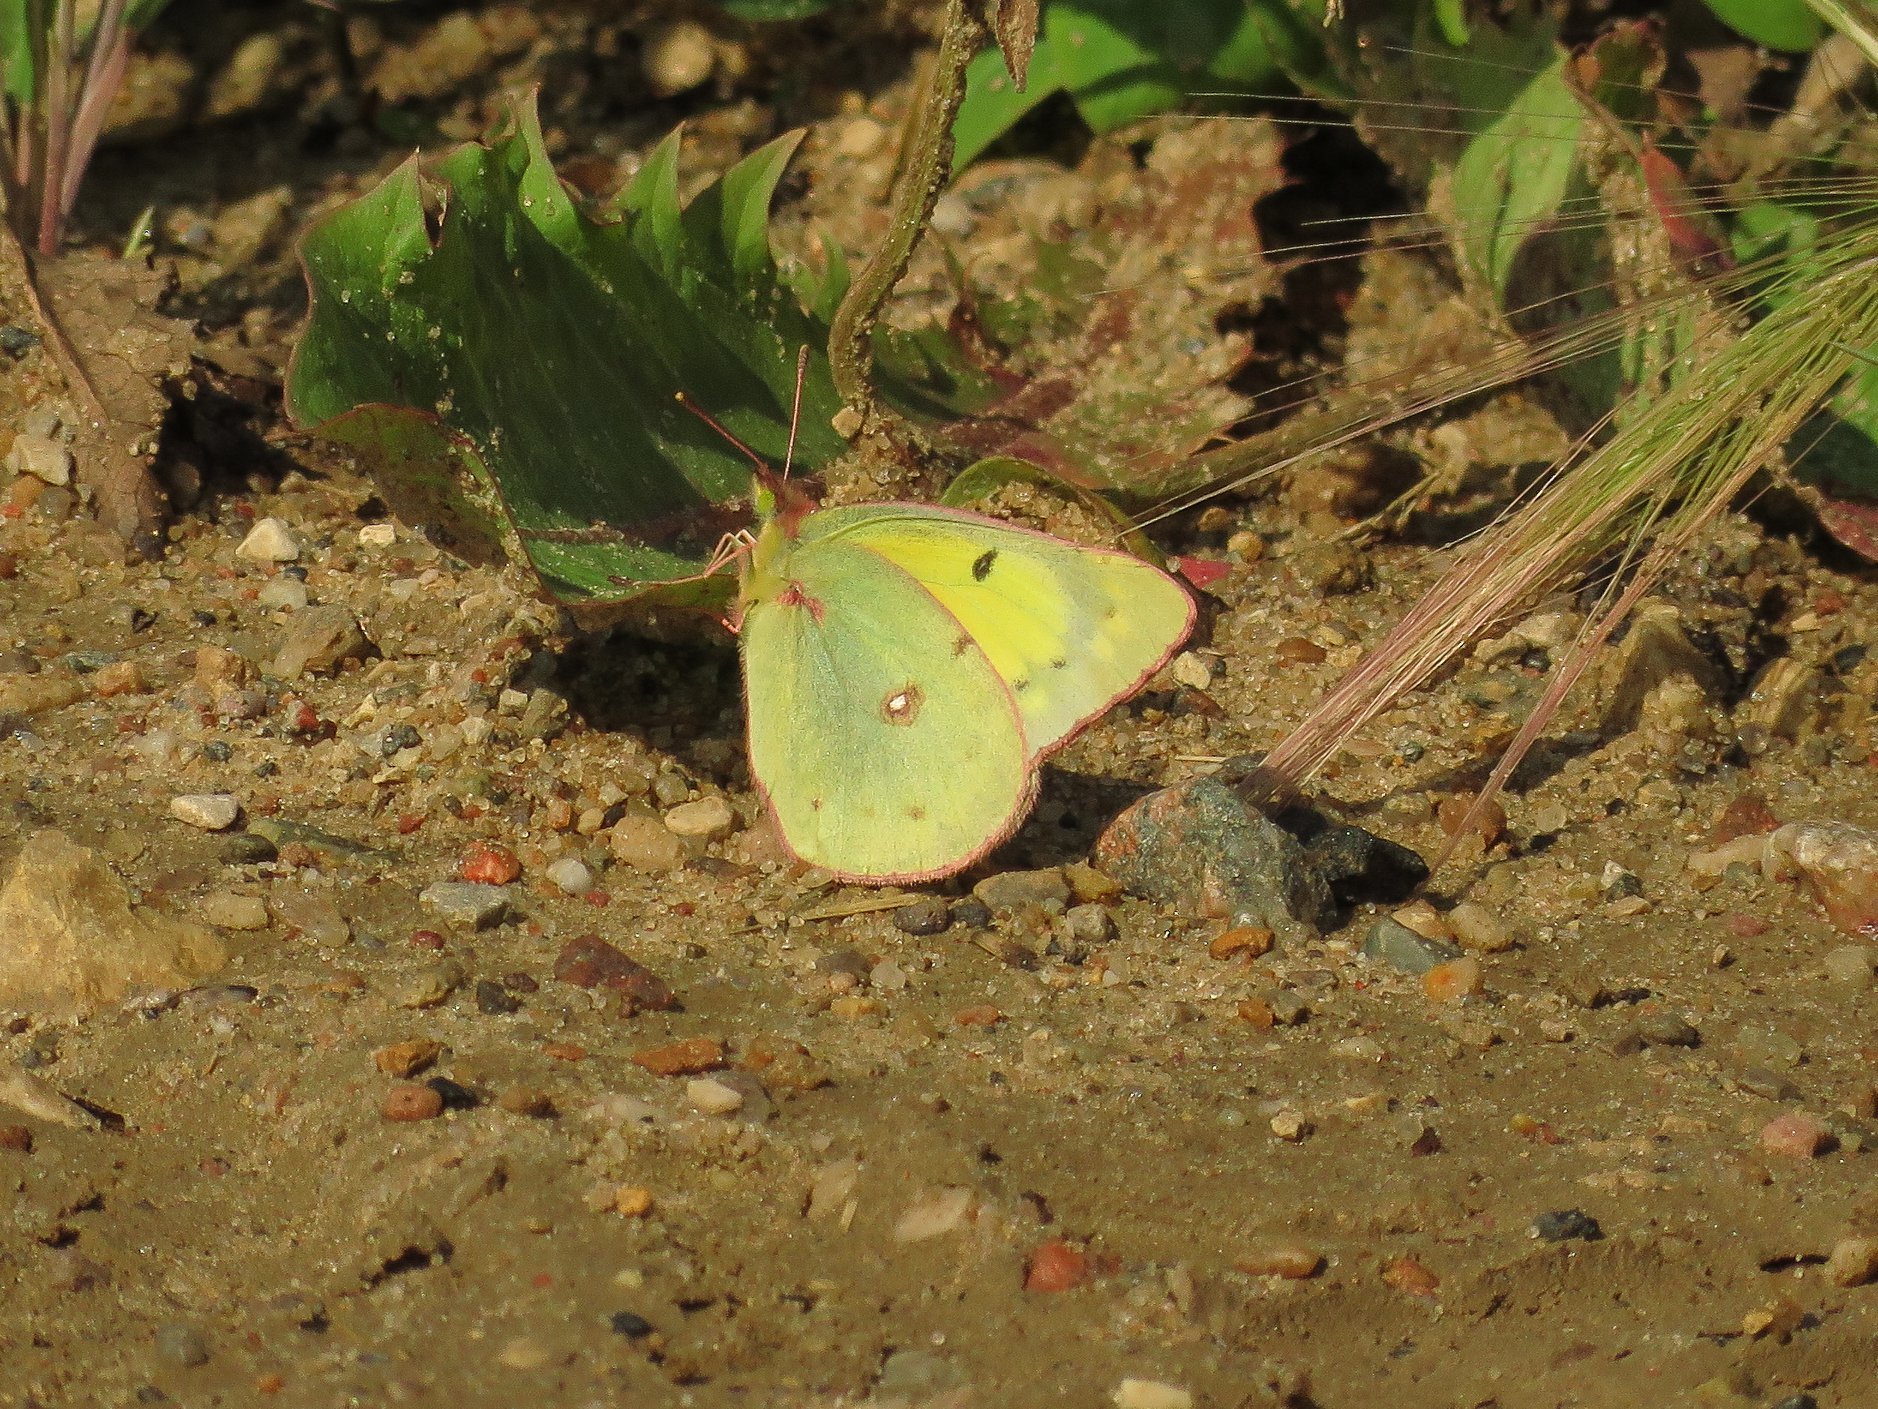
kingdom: Animalia
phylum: Arthropoda
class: Insecta
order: Lepidoptera
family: Pieridae
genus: Colias
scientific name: Colias philodice
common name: Clouded sulphur
